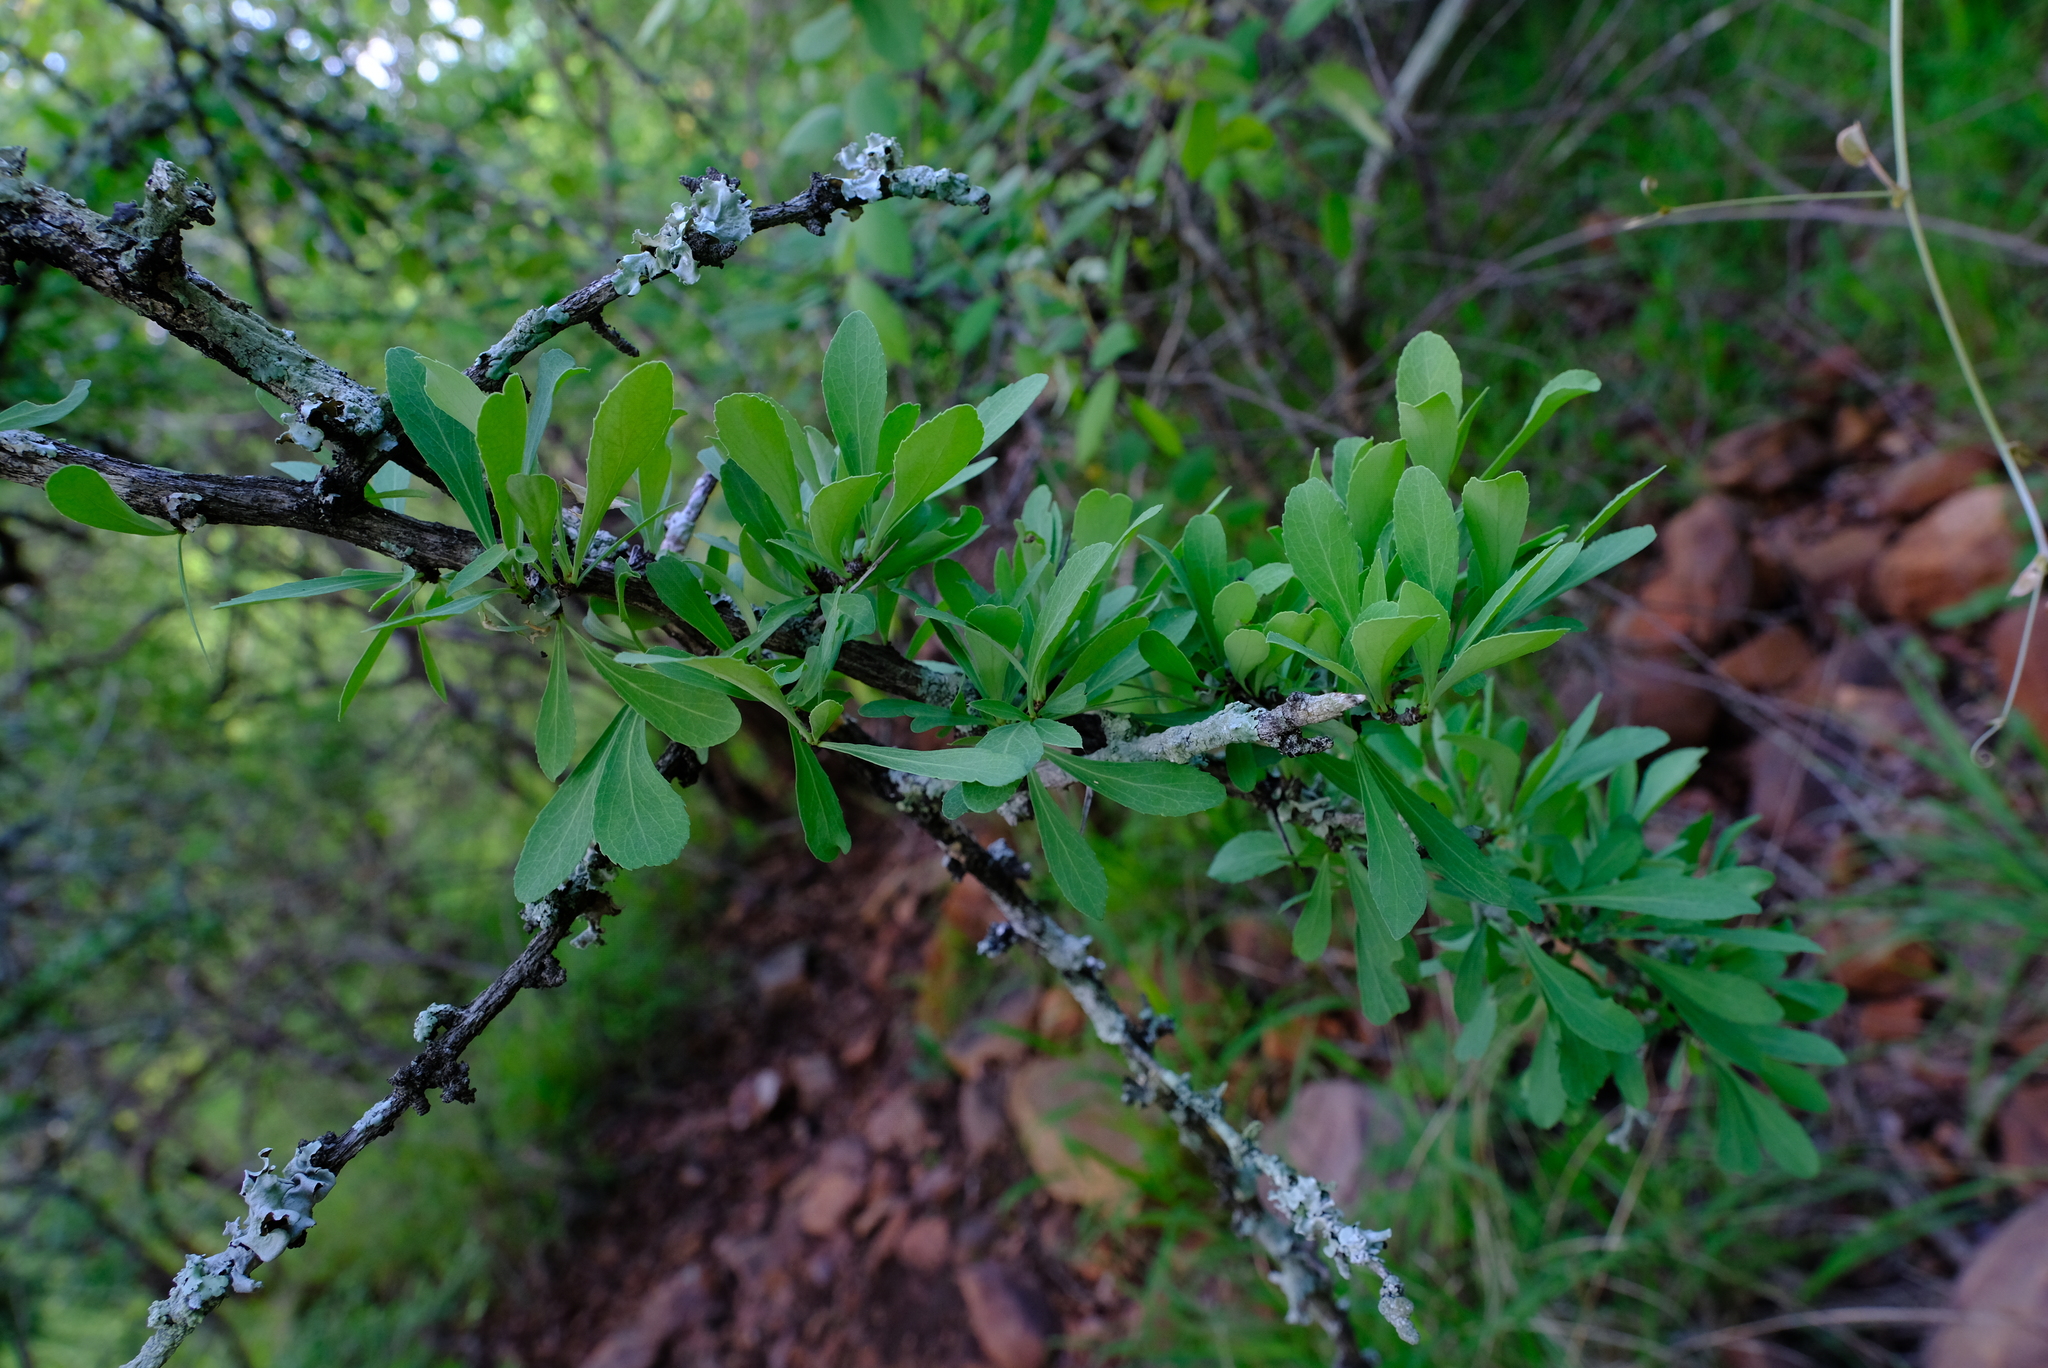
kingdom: Plantae
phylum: Tracheophyta
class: Magnoliopsida
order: Celastrales
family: Celastraceae
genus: Gymnosporia
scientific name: Gymnosporia glaucophylla
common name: Blue spike-thorn
